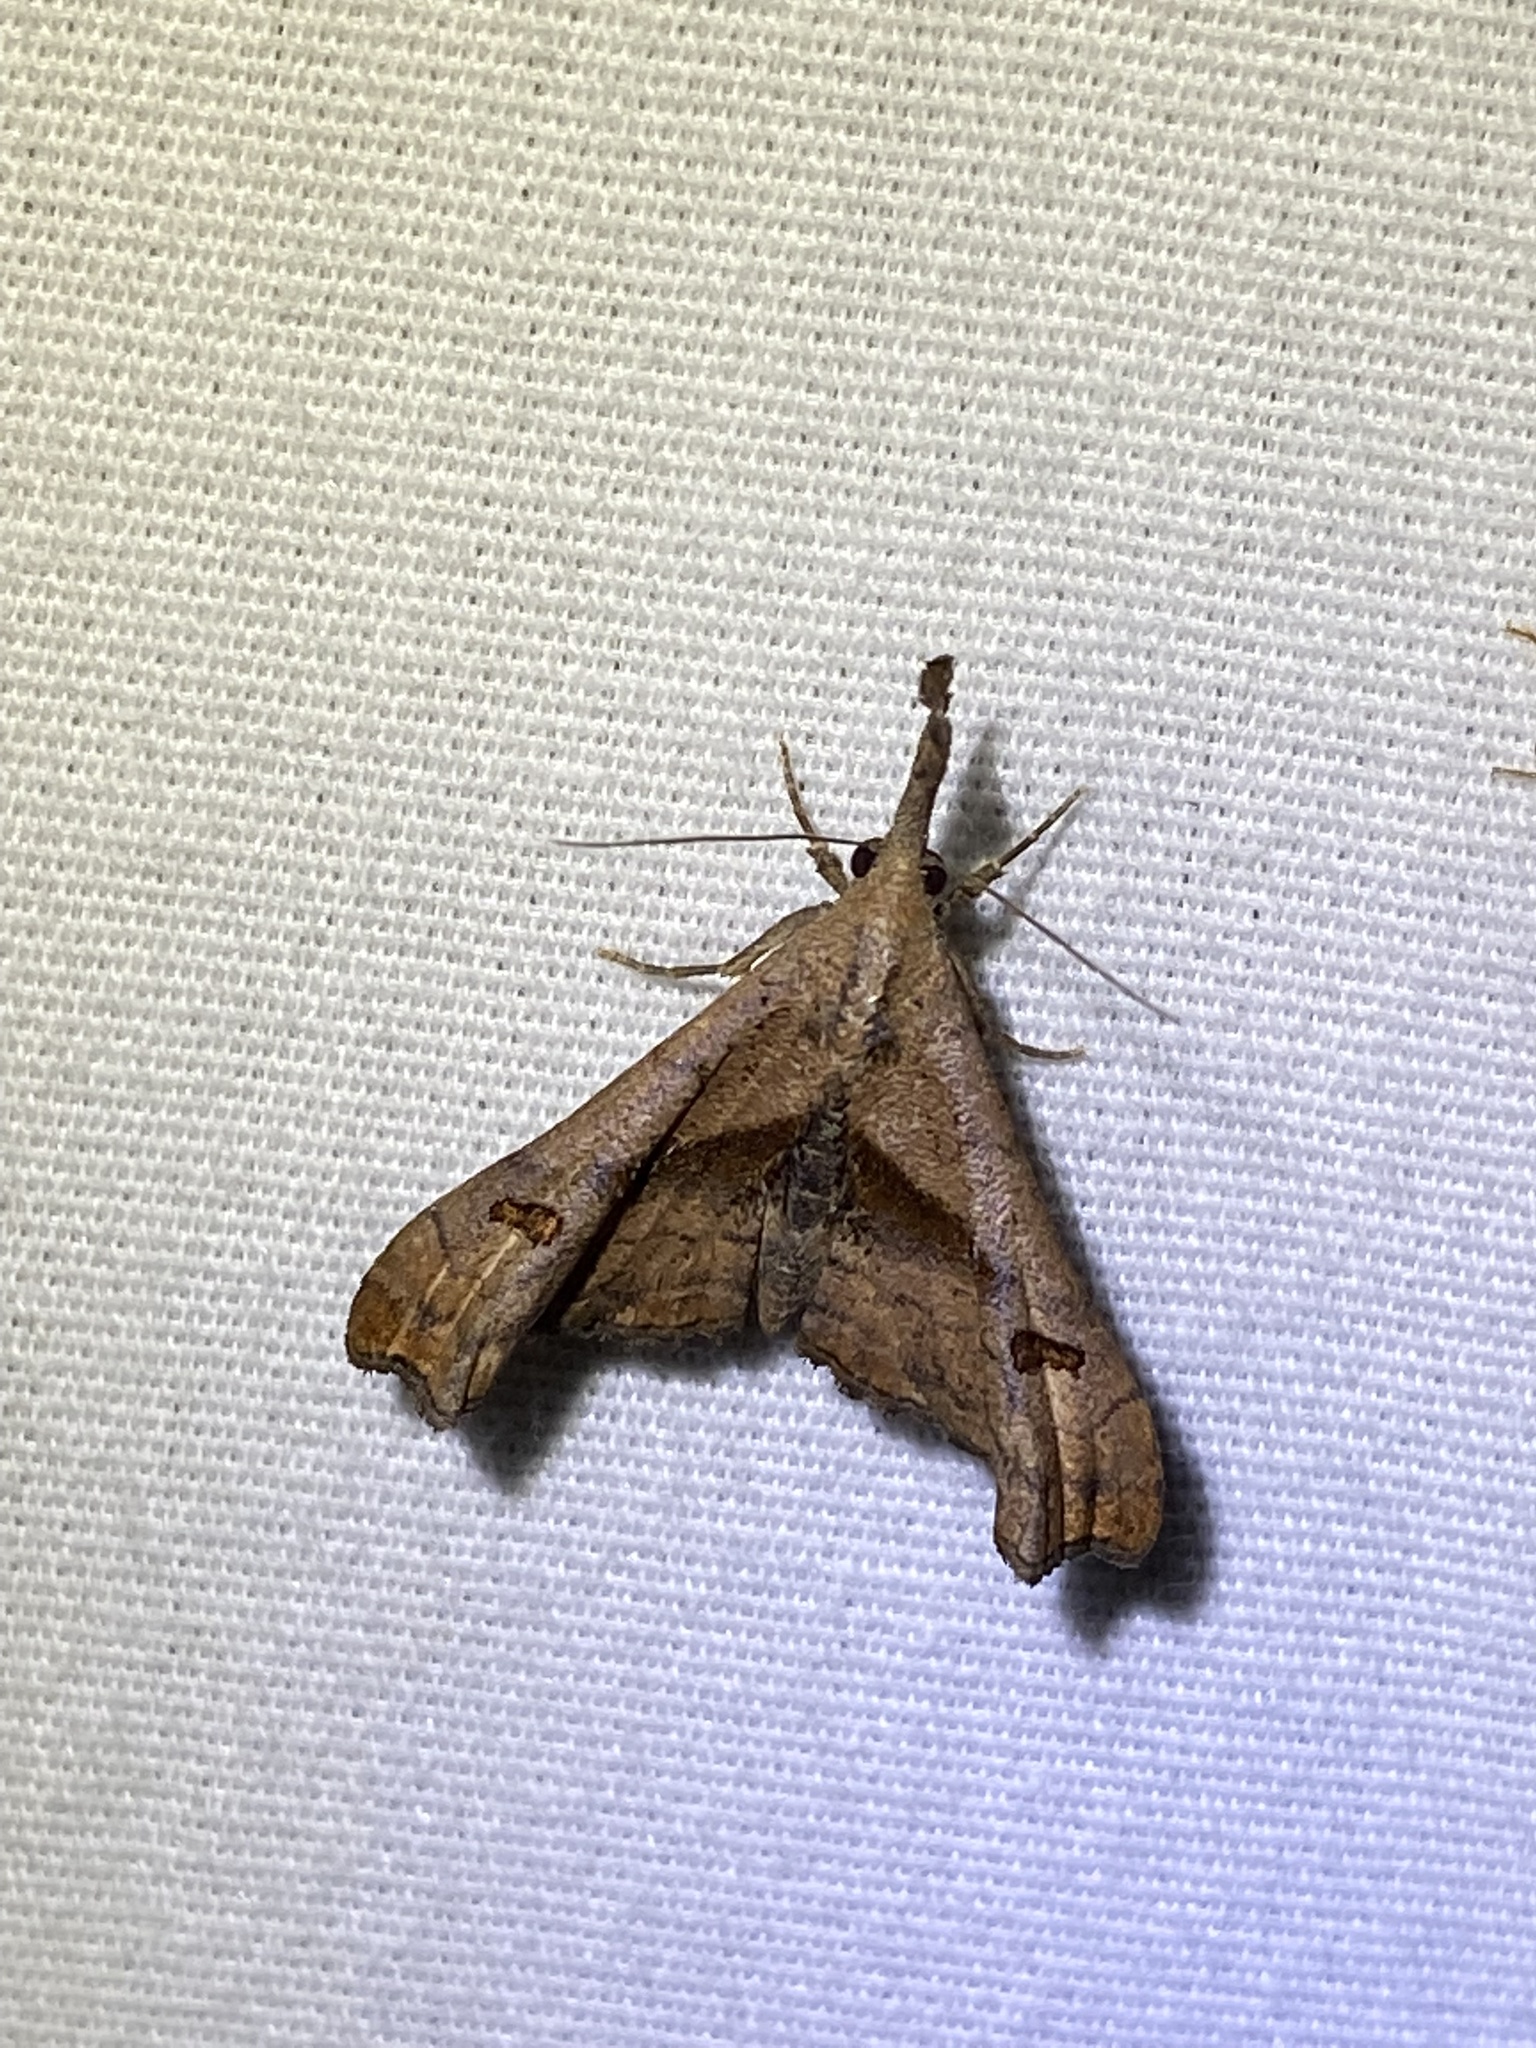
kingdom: Animalia
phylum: Arthropoda
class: Insecta
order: Lepidoptera
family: Erebidae
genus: Palthis
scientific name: Palthis angulalis
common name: Dark-spotted palthis moth
